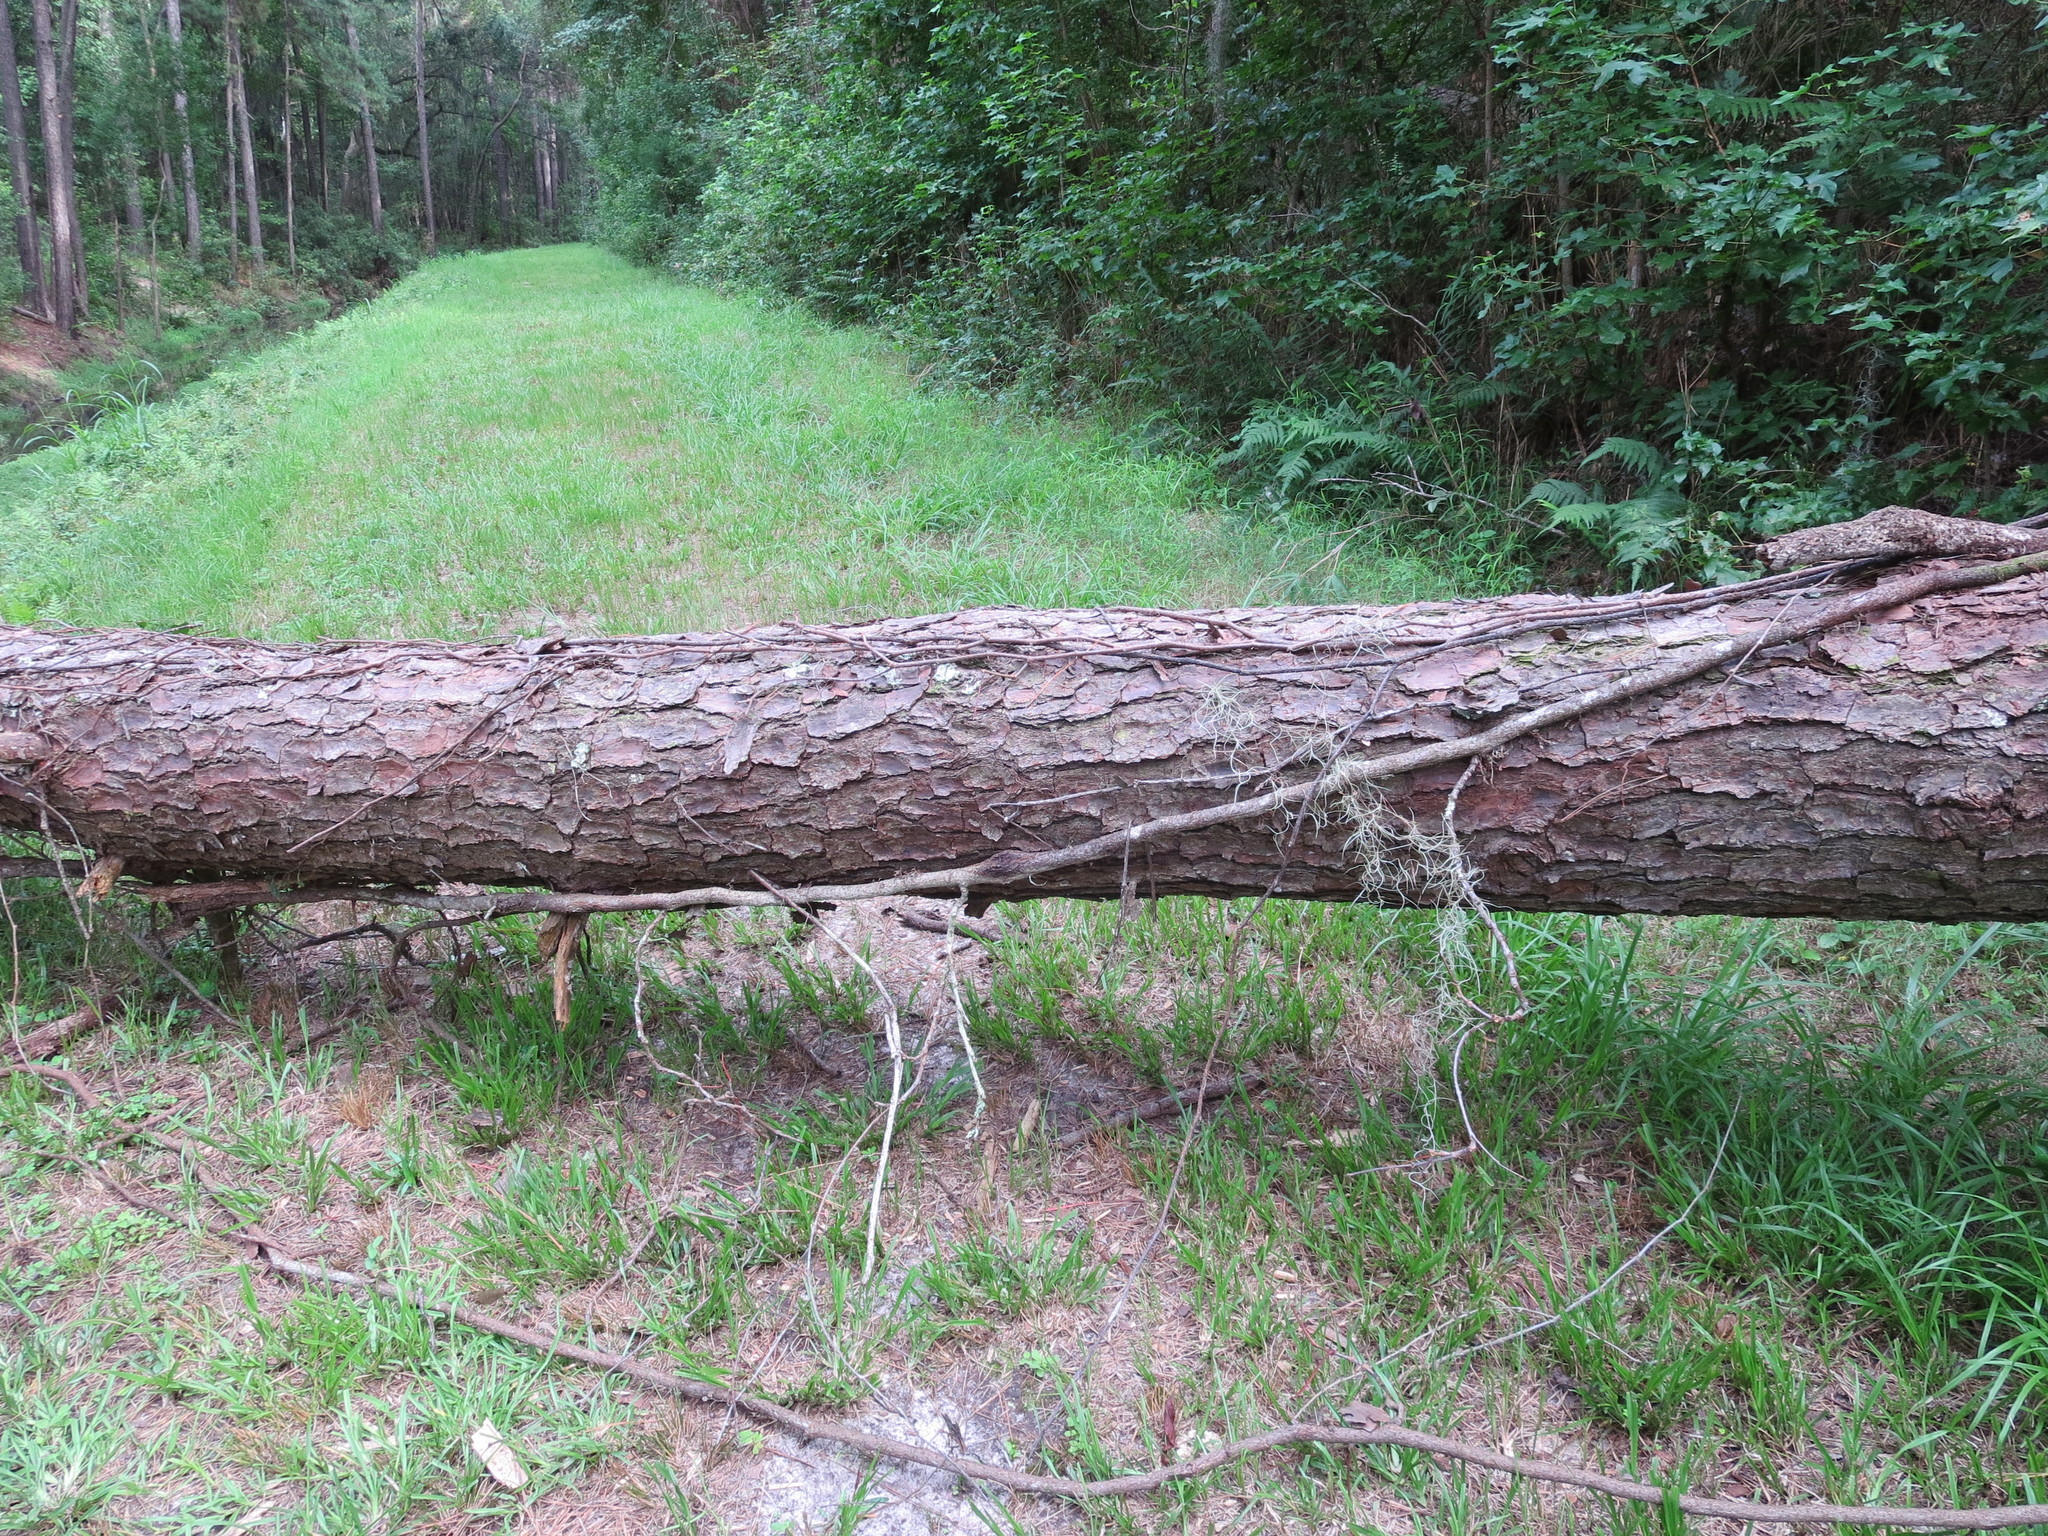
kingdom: Plantae
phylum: Tracheophyta
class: Pinopsida
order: Pinales
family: Pinaceae
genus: Pinus
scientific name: Pinus taeda
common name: Loblolly pine
